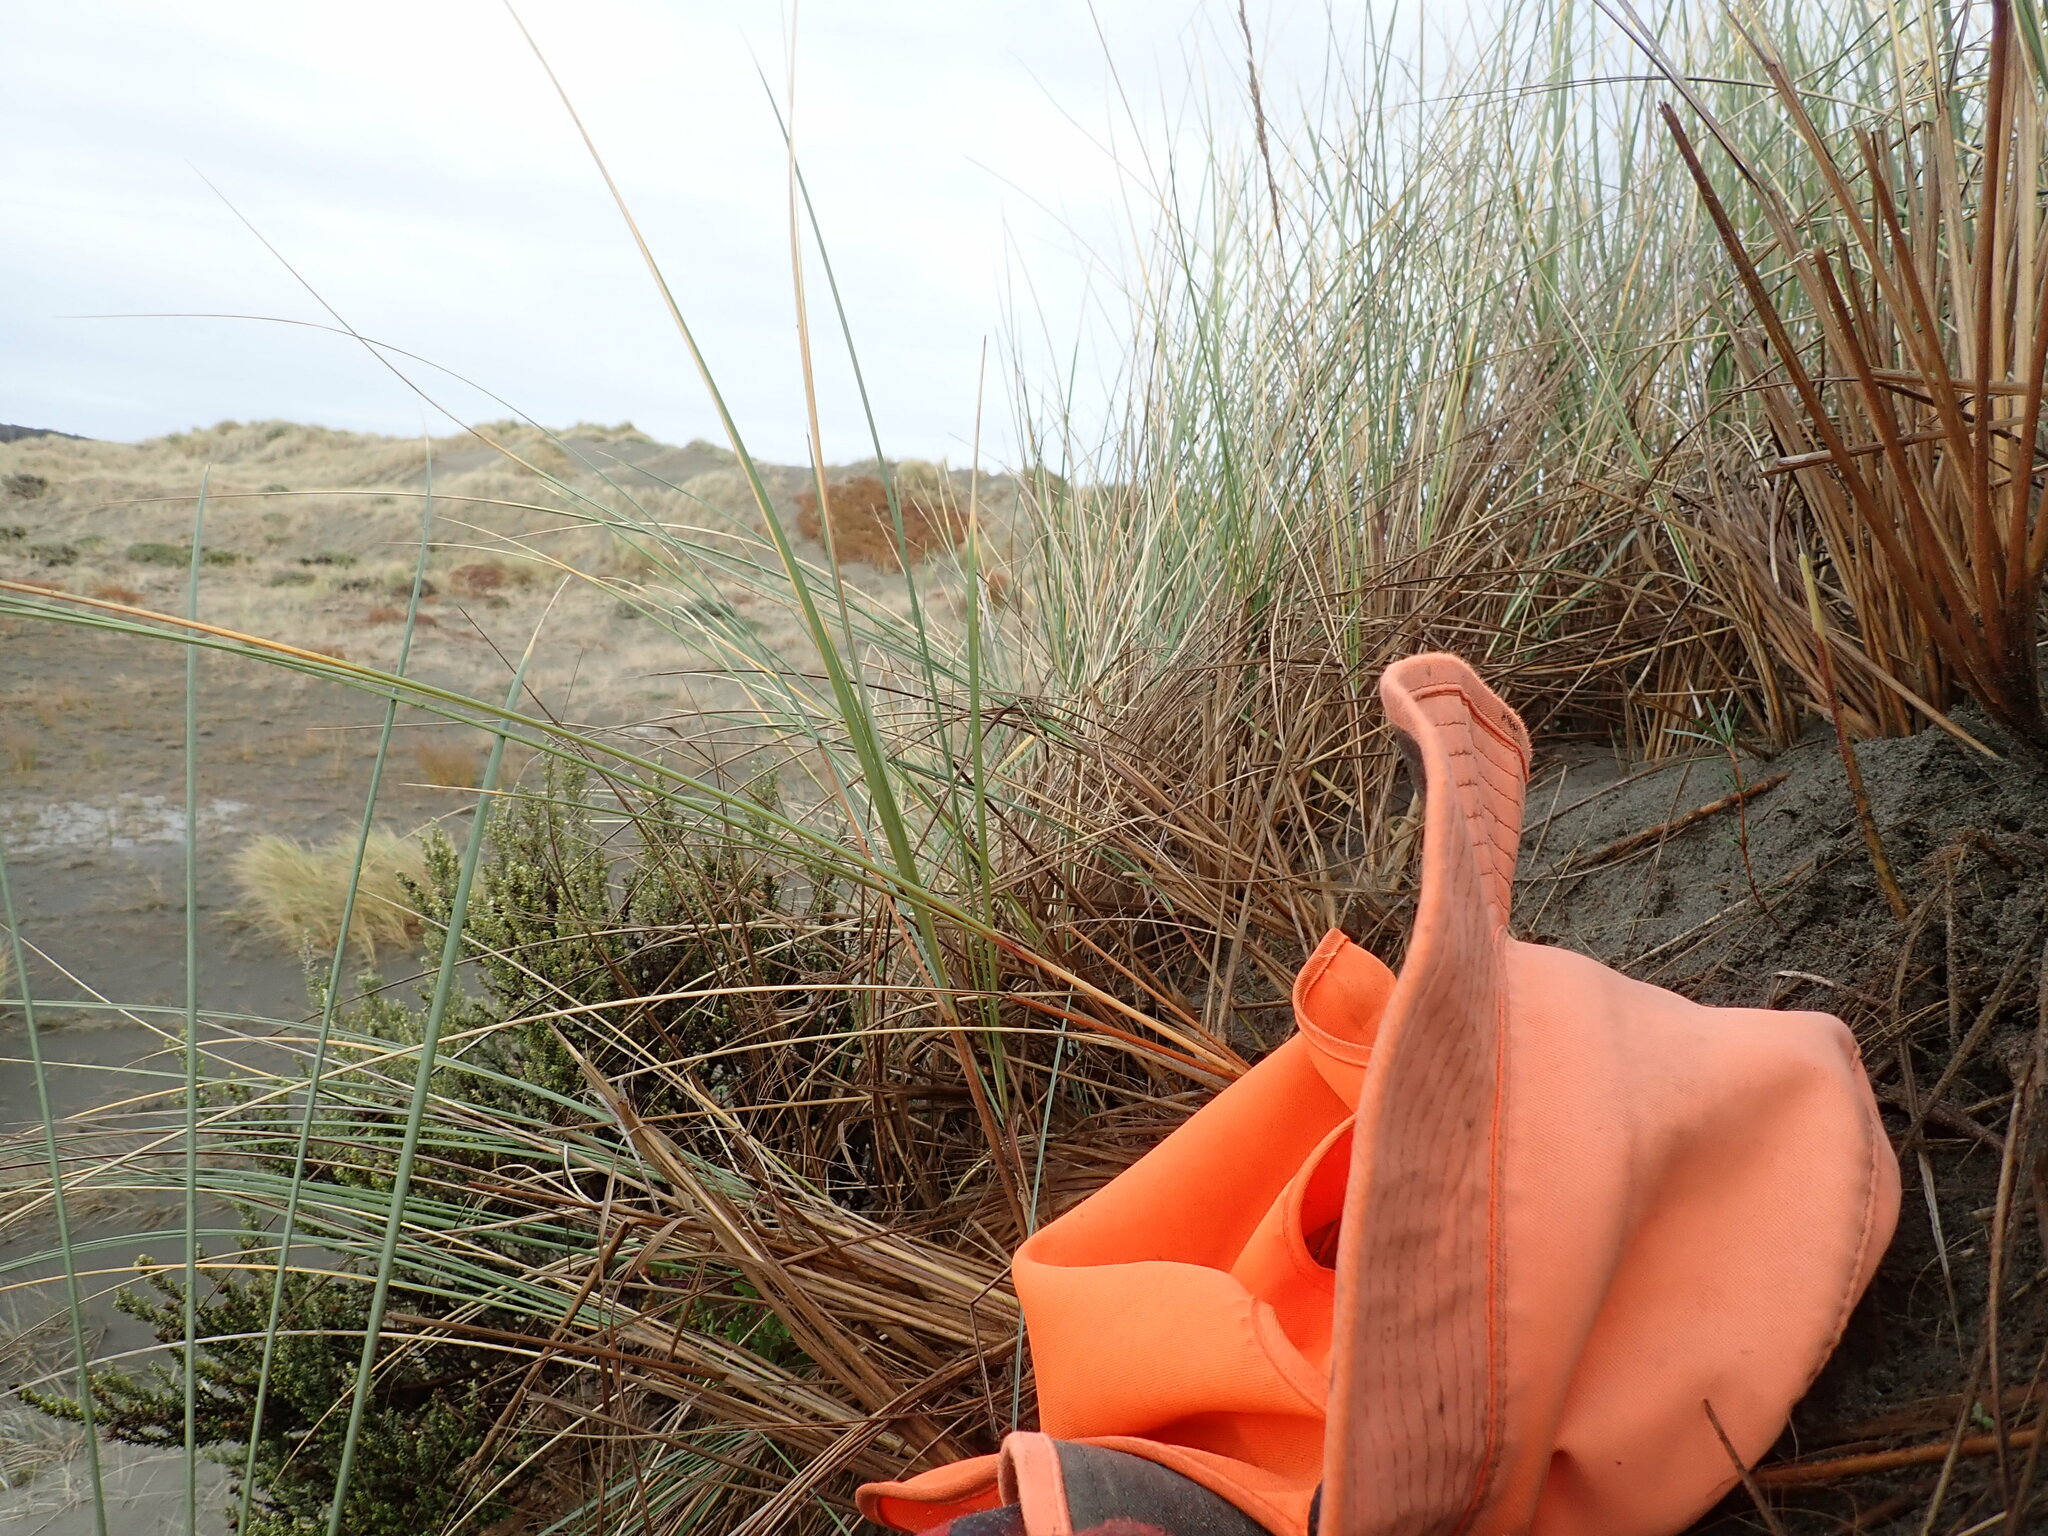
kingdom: Plantae
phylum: Tracheophyta
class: Magnoliopsida
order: Gentianales
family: Rubiaceae
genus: Coprosma
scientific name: Coprosma acerosa
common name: Sand coprosma
